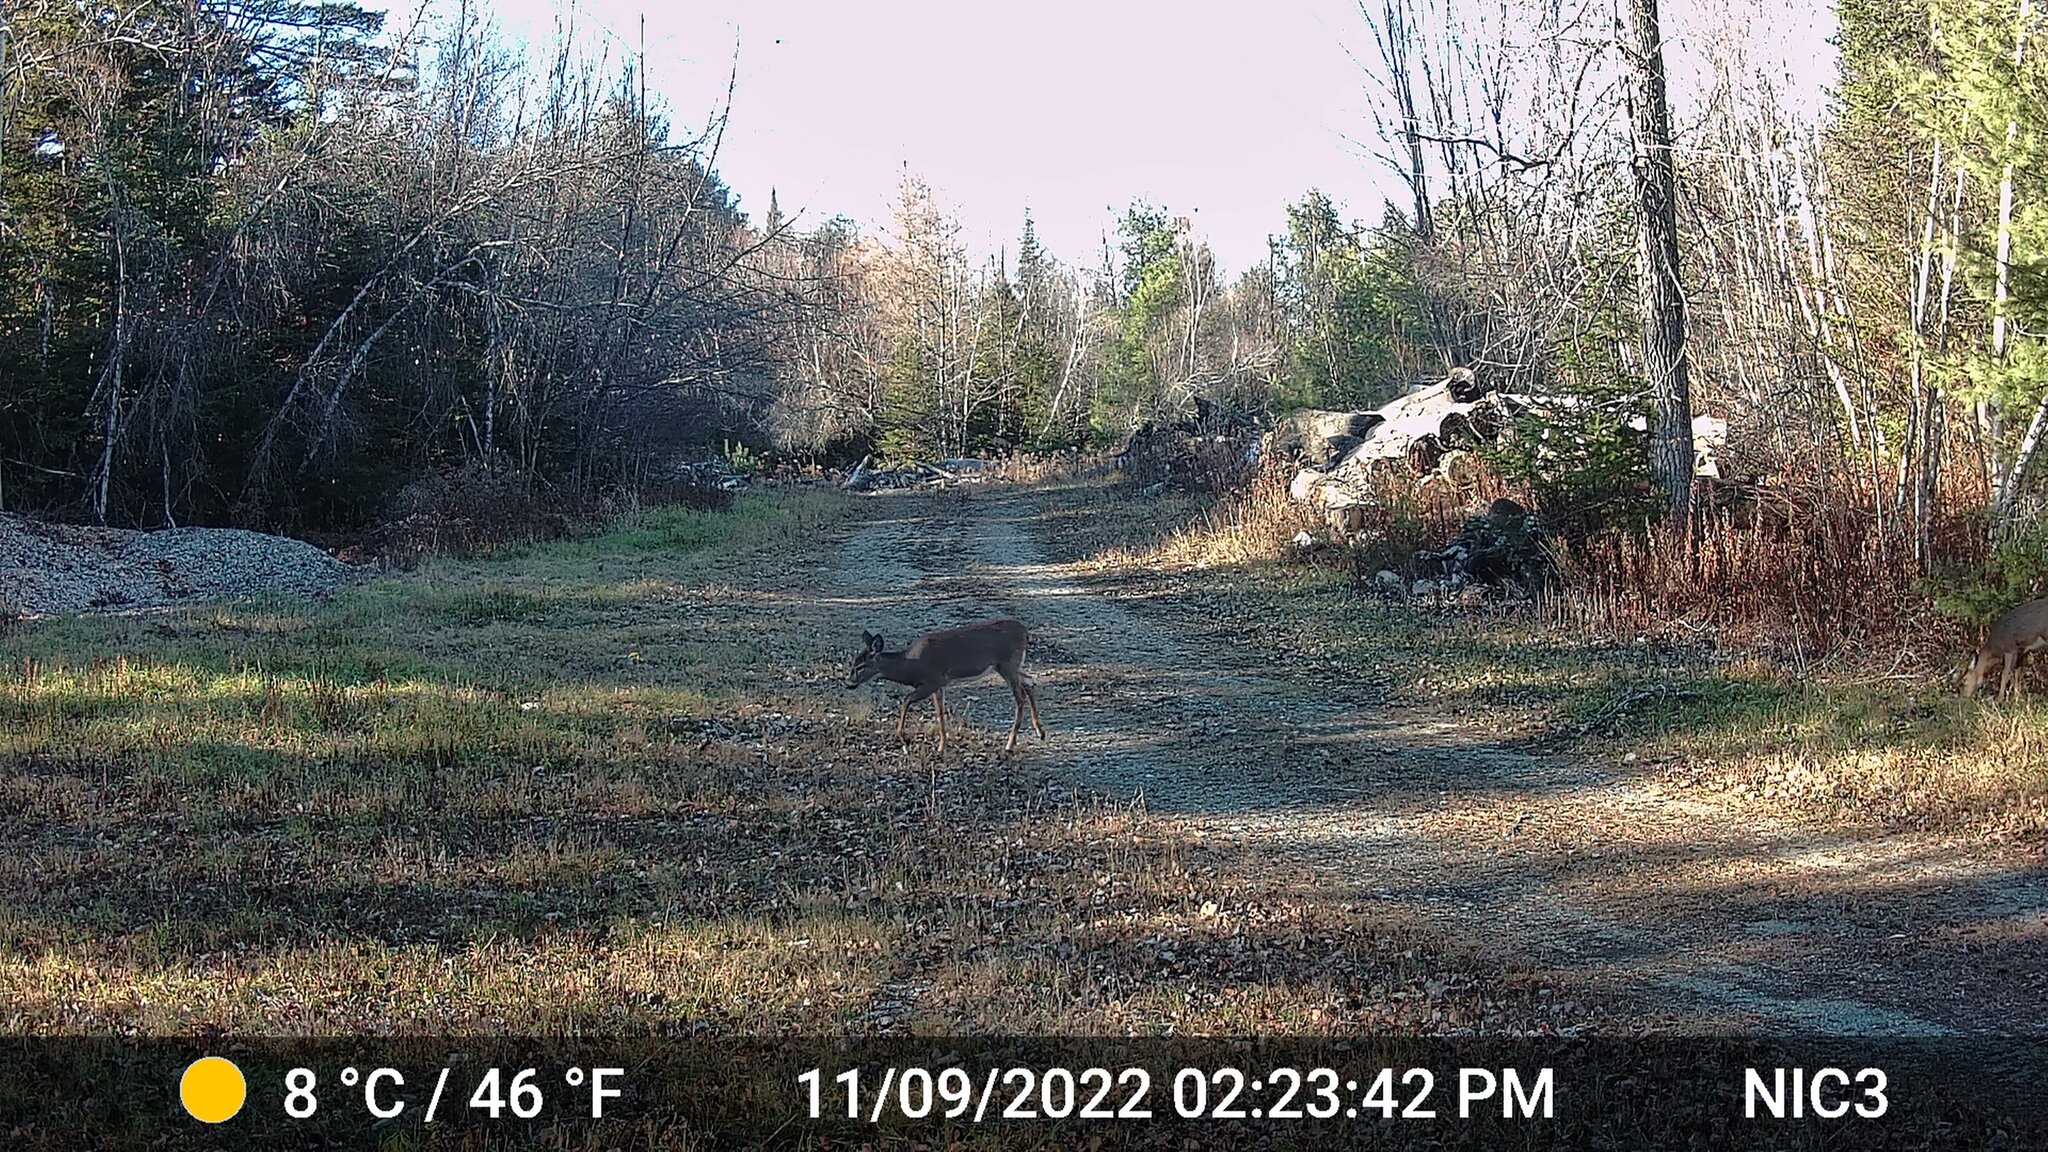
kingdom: Animalia
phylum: Chordata
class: Mammalia
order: Artiodactyla
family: Cervidae
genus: Odocoileus
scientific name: Odocoileus virginianus
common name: White-tailed deer
